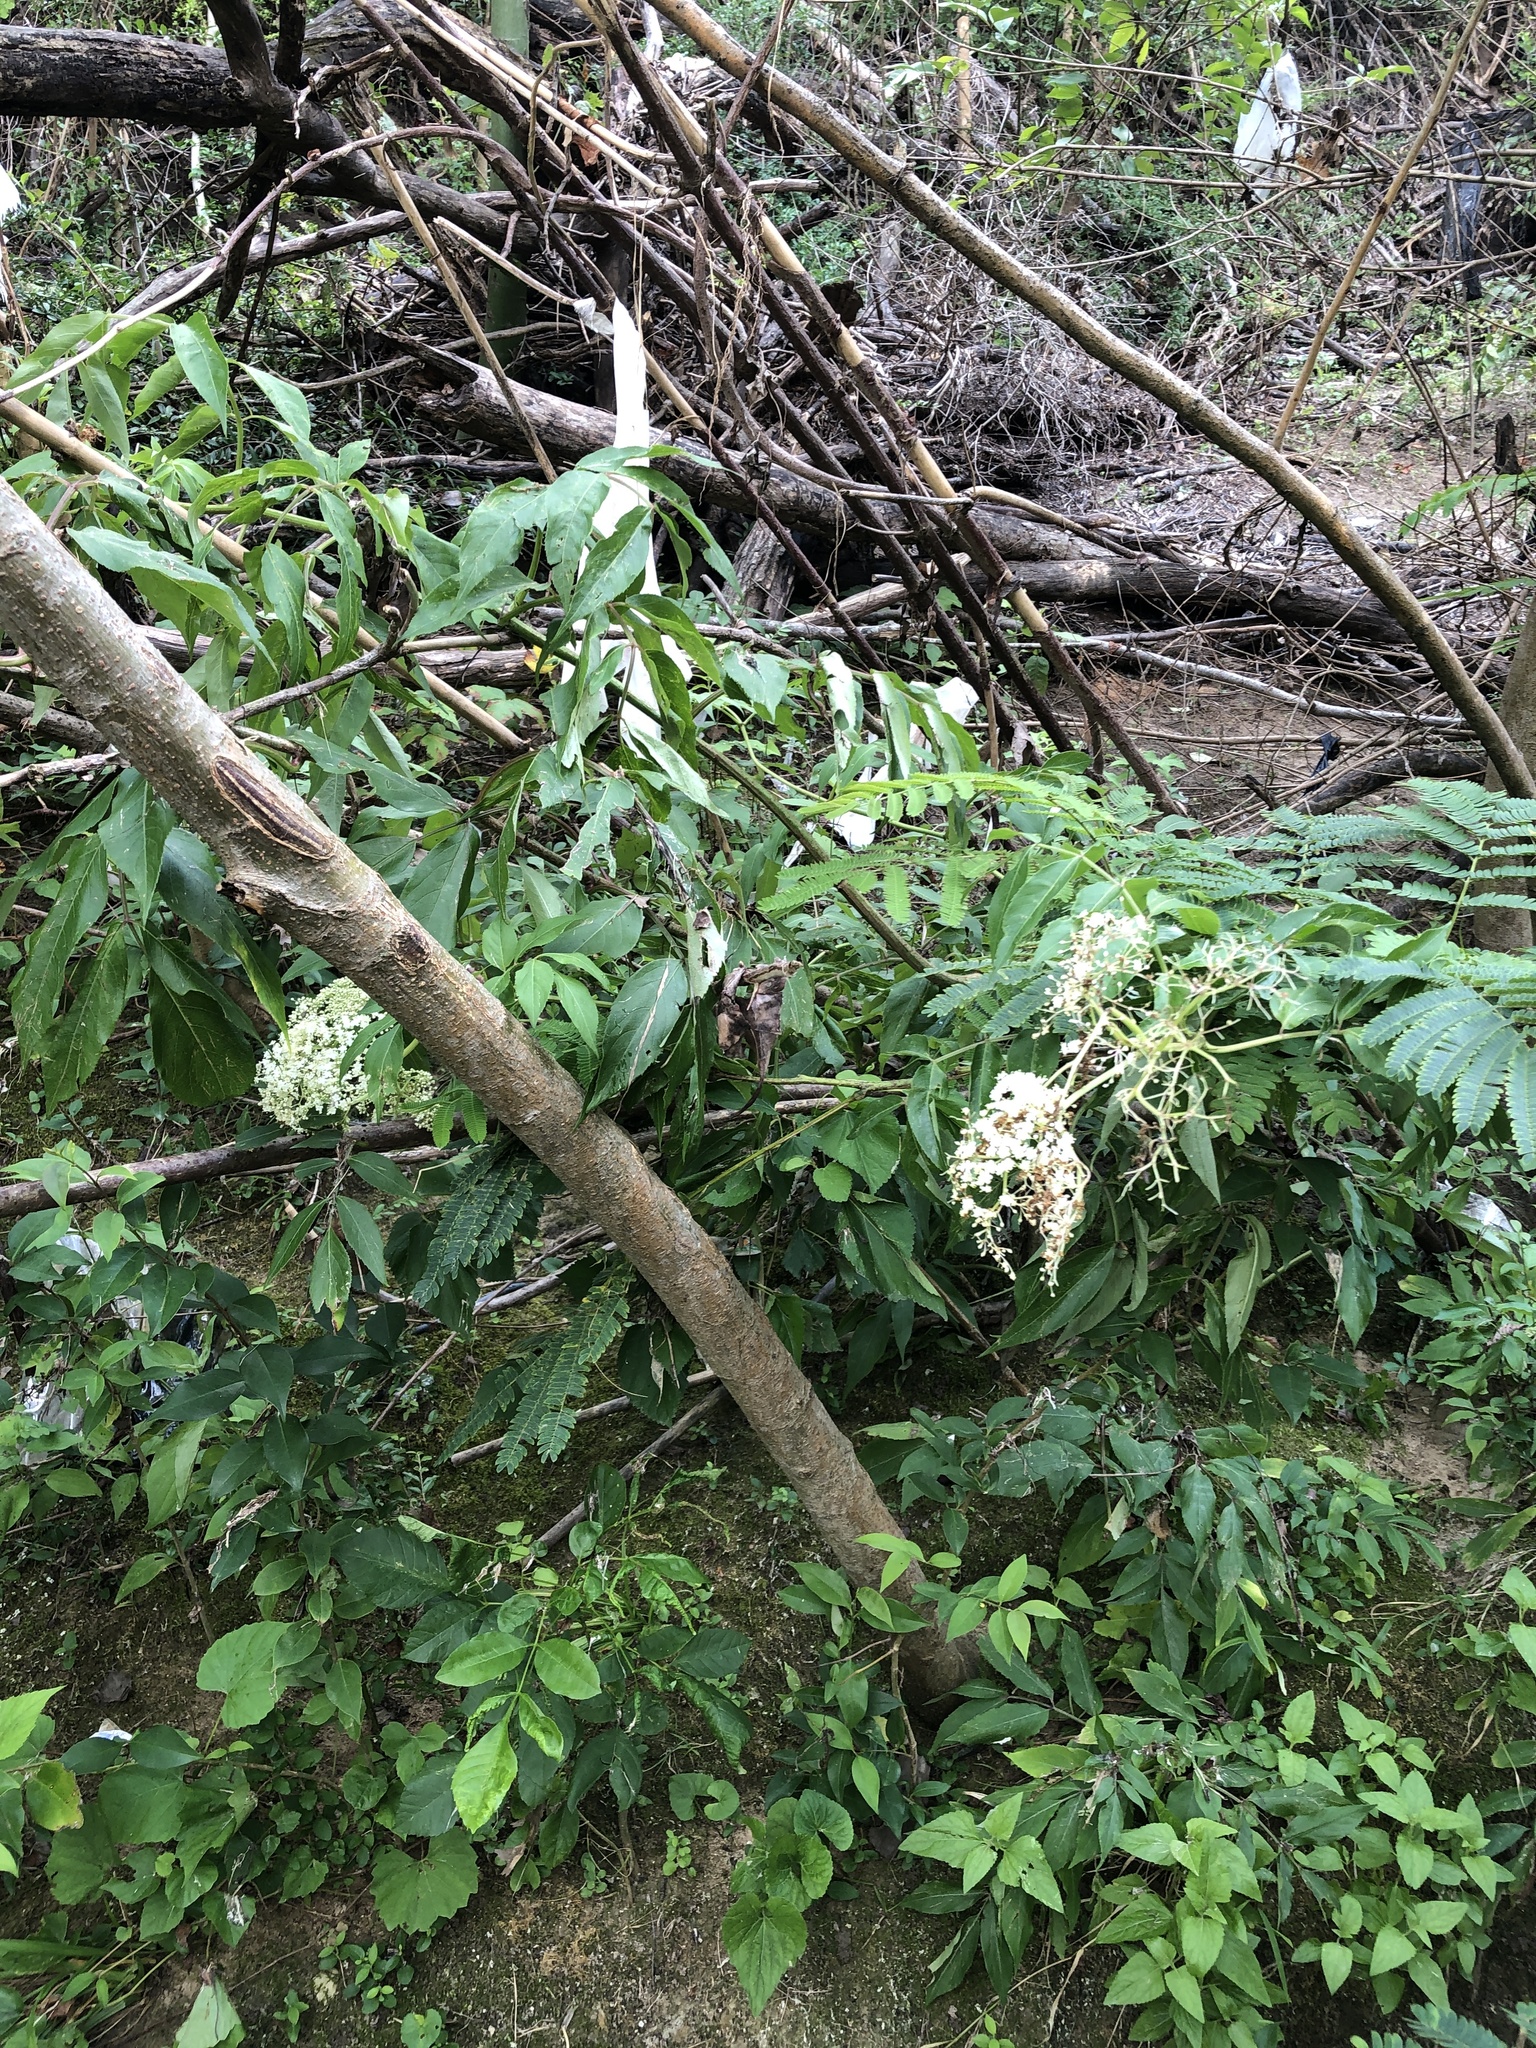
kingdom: Plantae
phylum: Tracheophyta
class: Magnoliopsida
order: Dipsacales
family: Viburnaceae
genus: Sambucus
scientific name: Sambucus canadensis
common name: American elder
